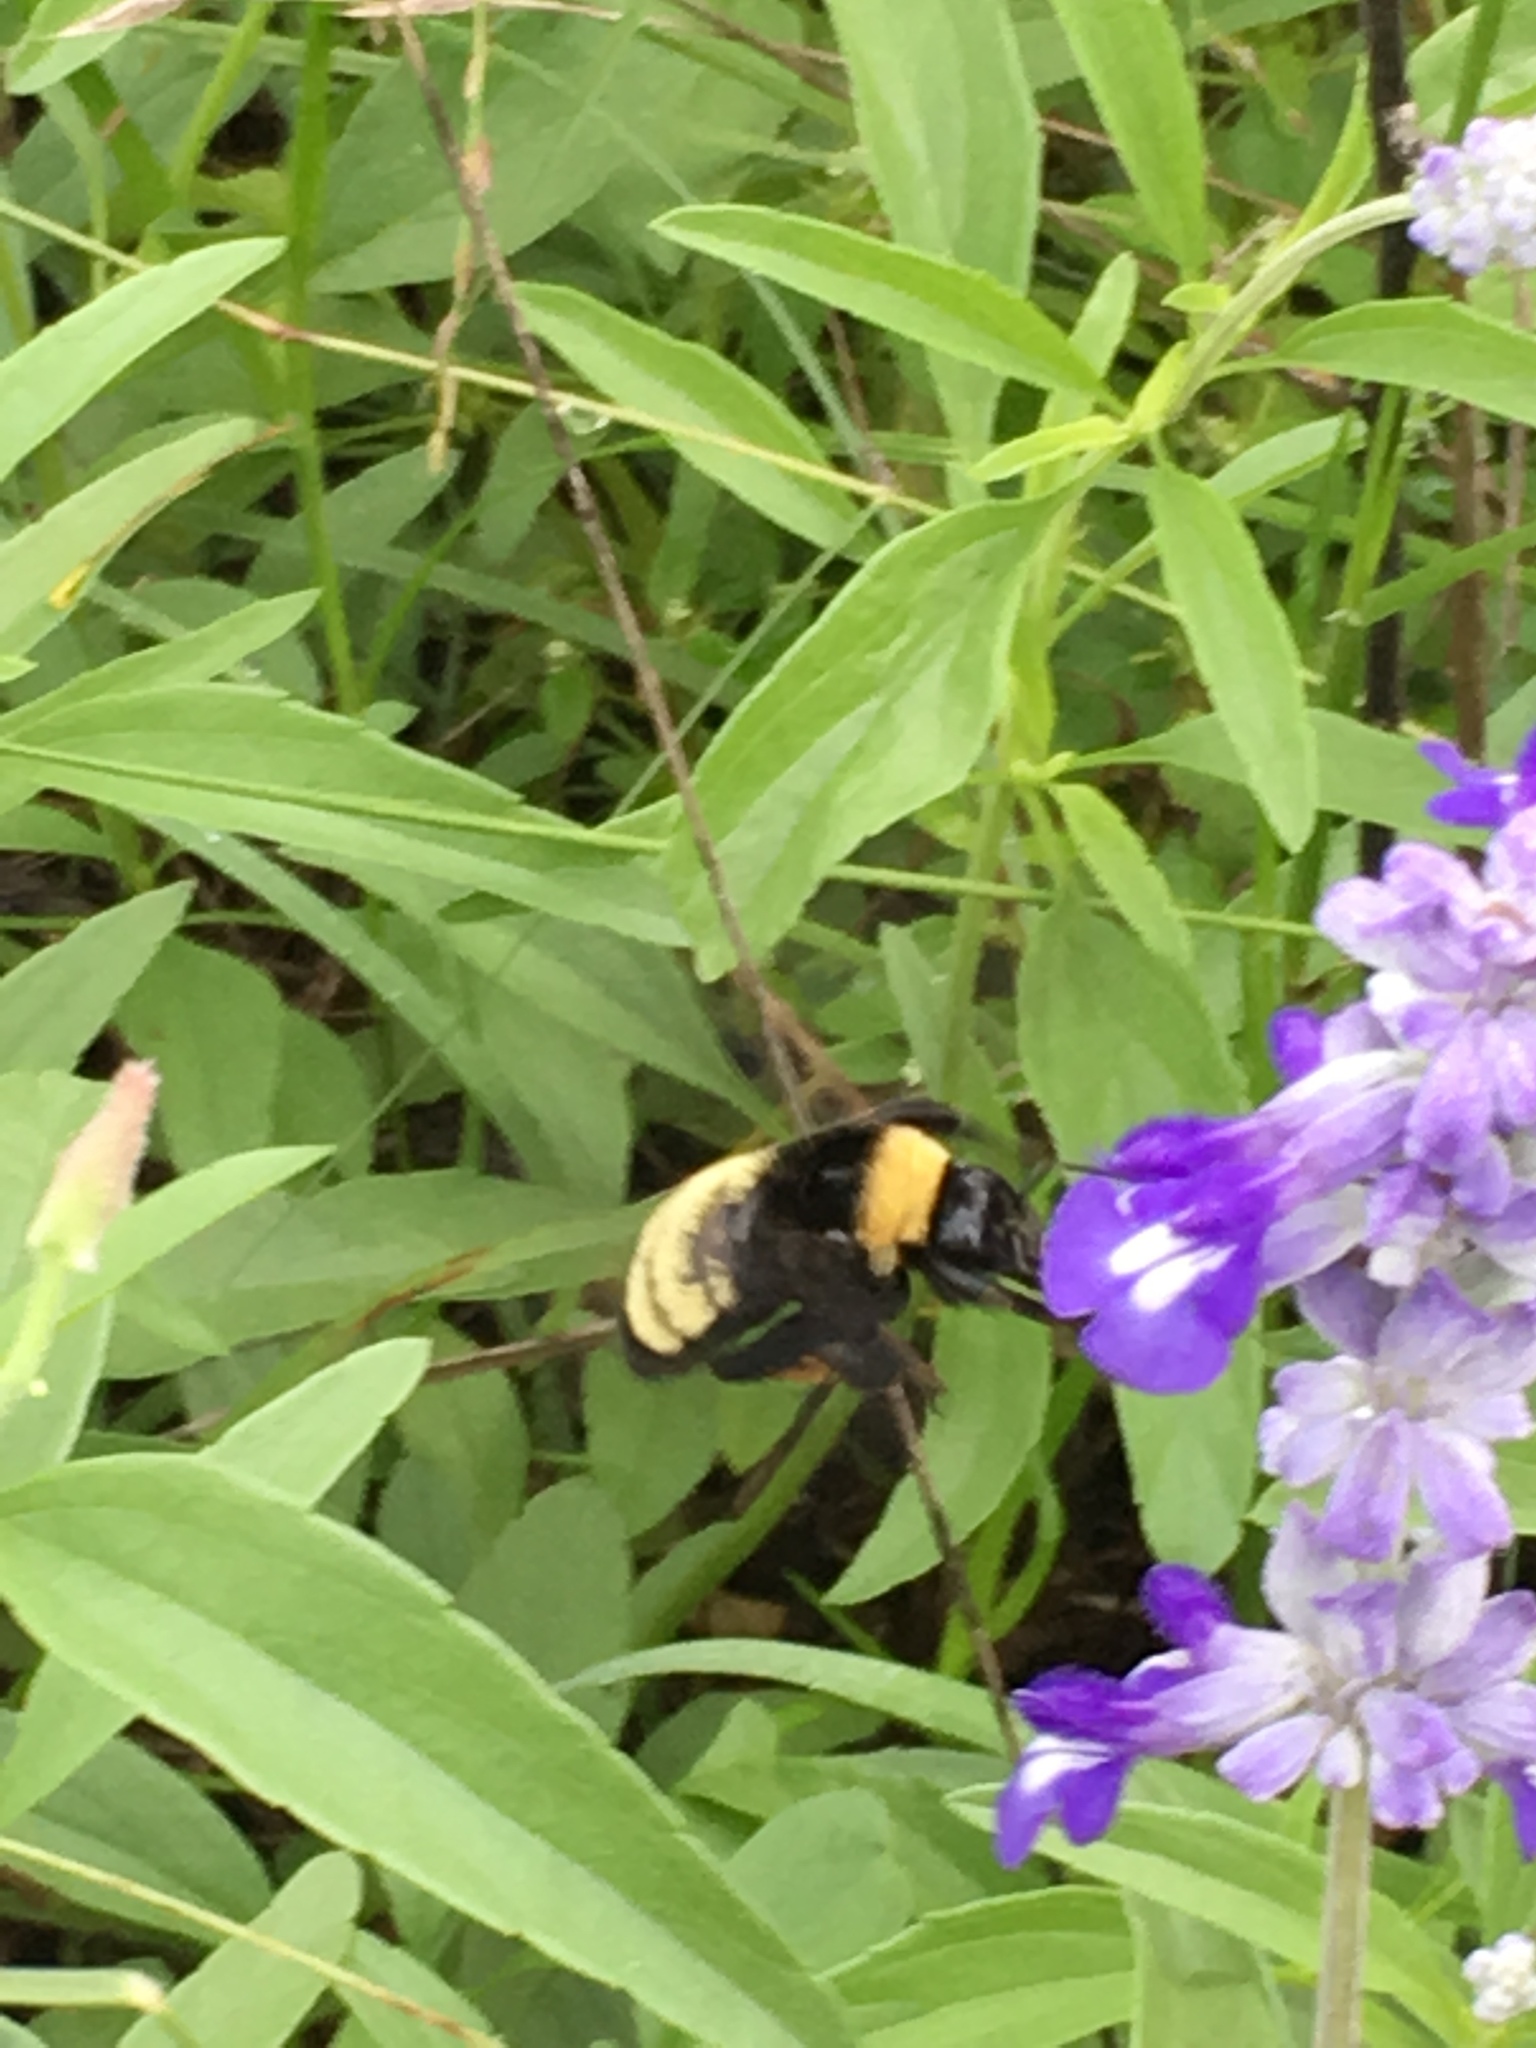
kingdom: Animalia
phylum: Arthropoda
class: Insecta
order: Hymenoptera
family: Apidae
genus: Bombus
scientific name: Bombus pensylvanicus
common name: Bumble bee
